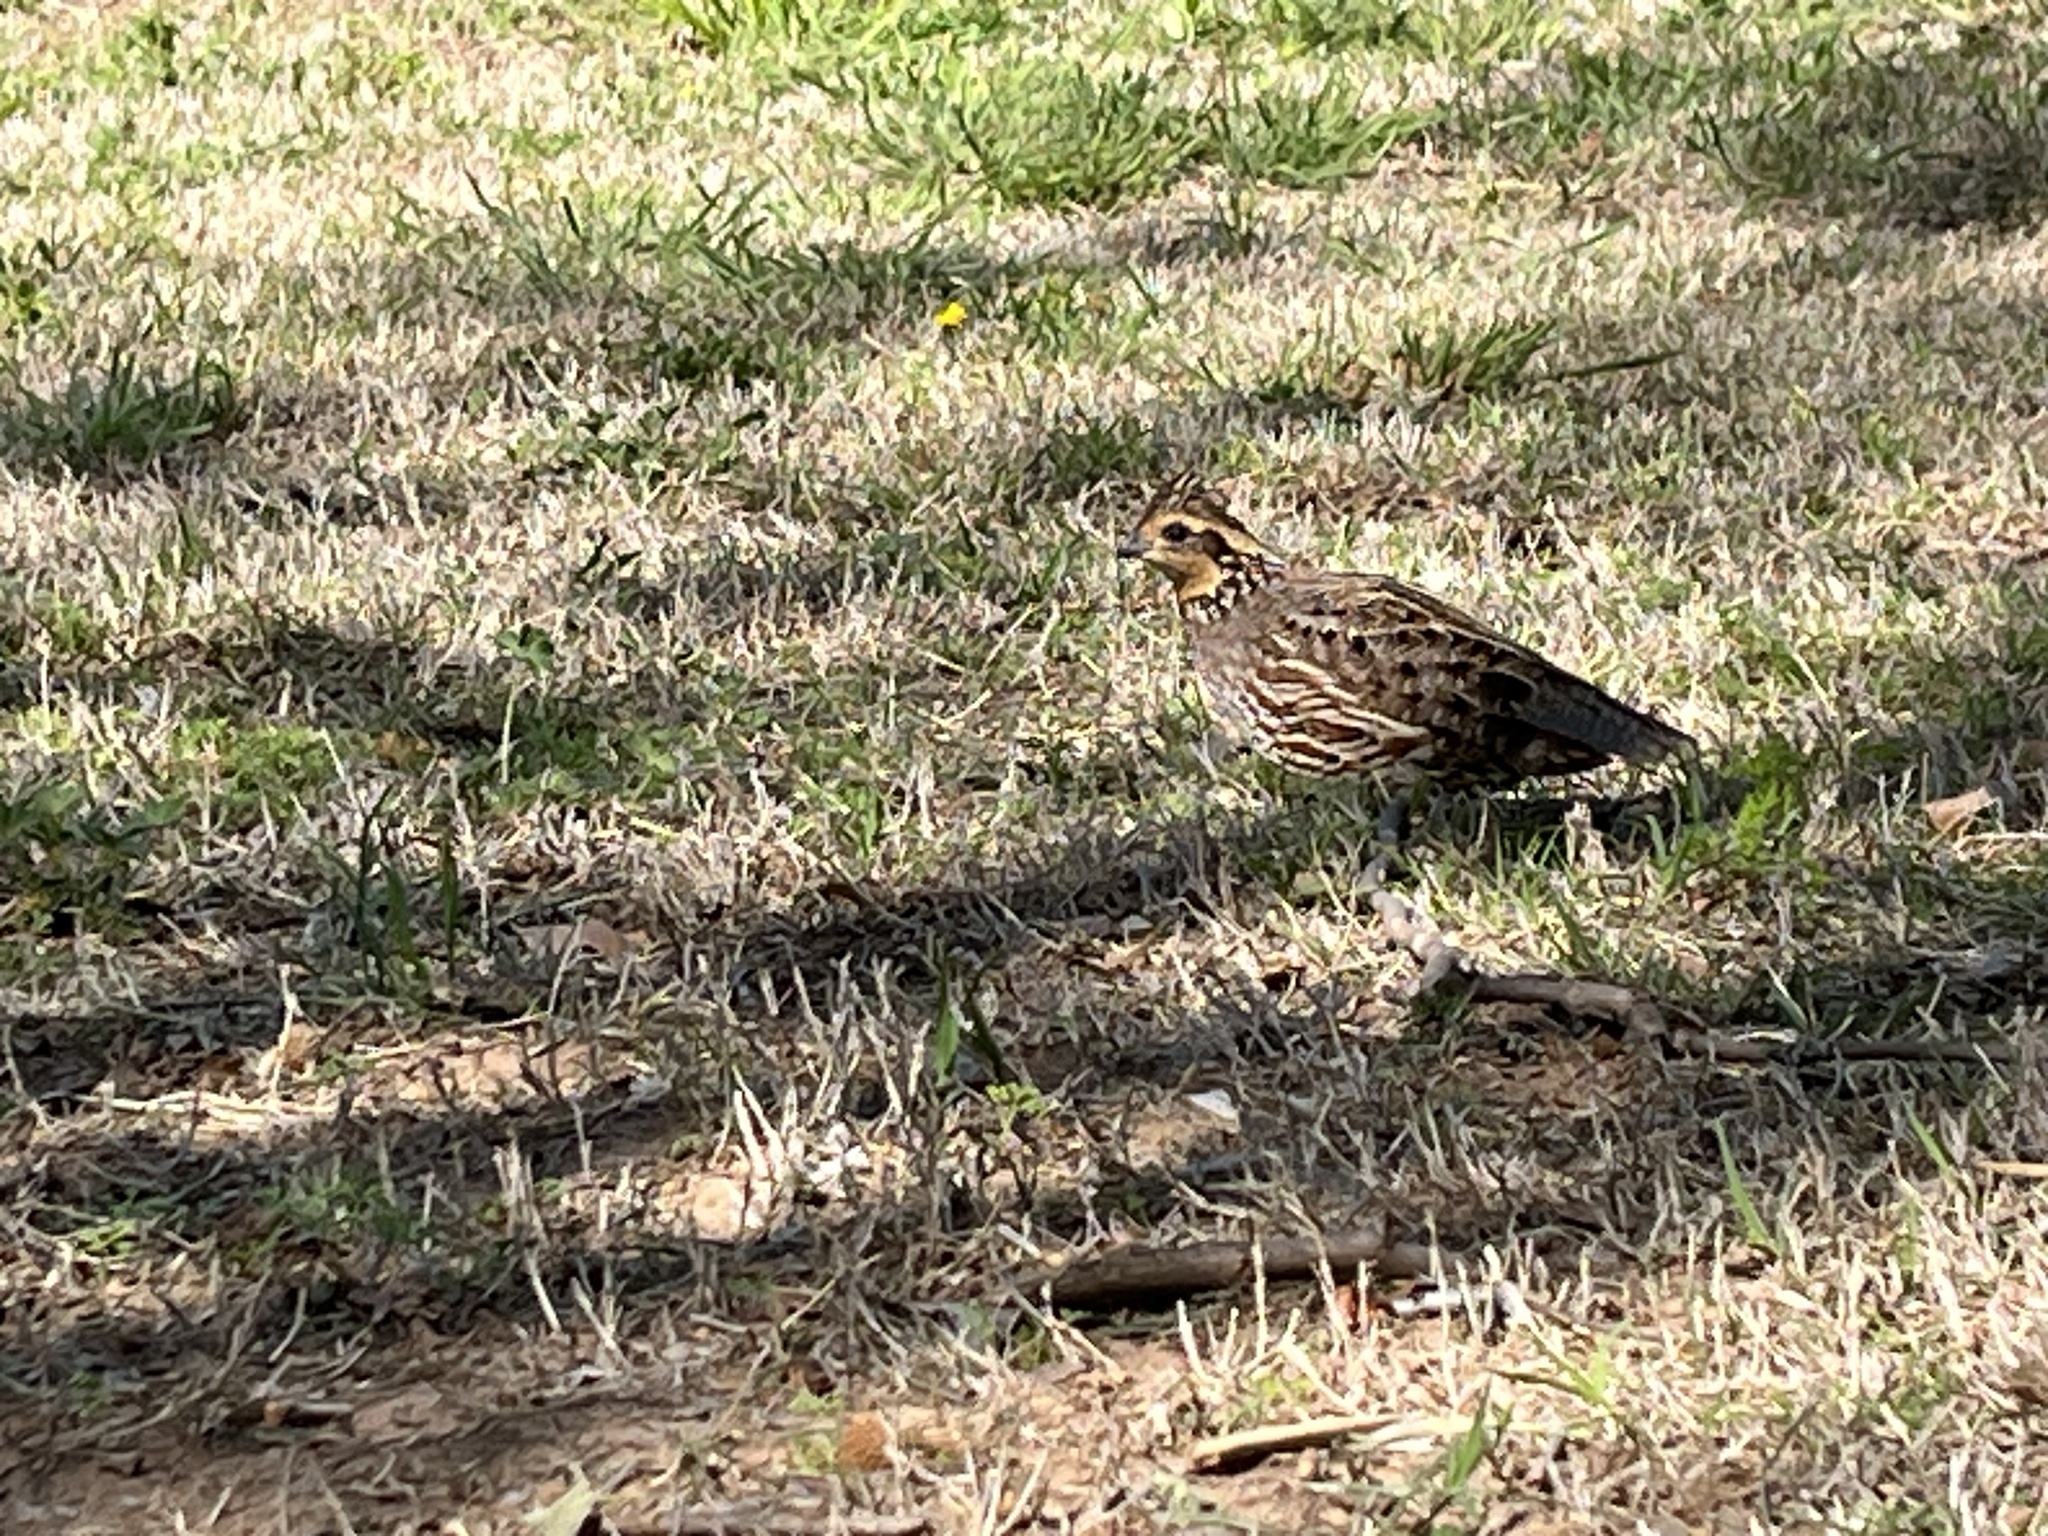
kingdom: Animalia
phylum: Chordata
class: Aves
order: Galliformes
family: Odontophoridae
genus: Colinus
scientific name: Colinus virginianus
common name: Northern bobwhite
